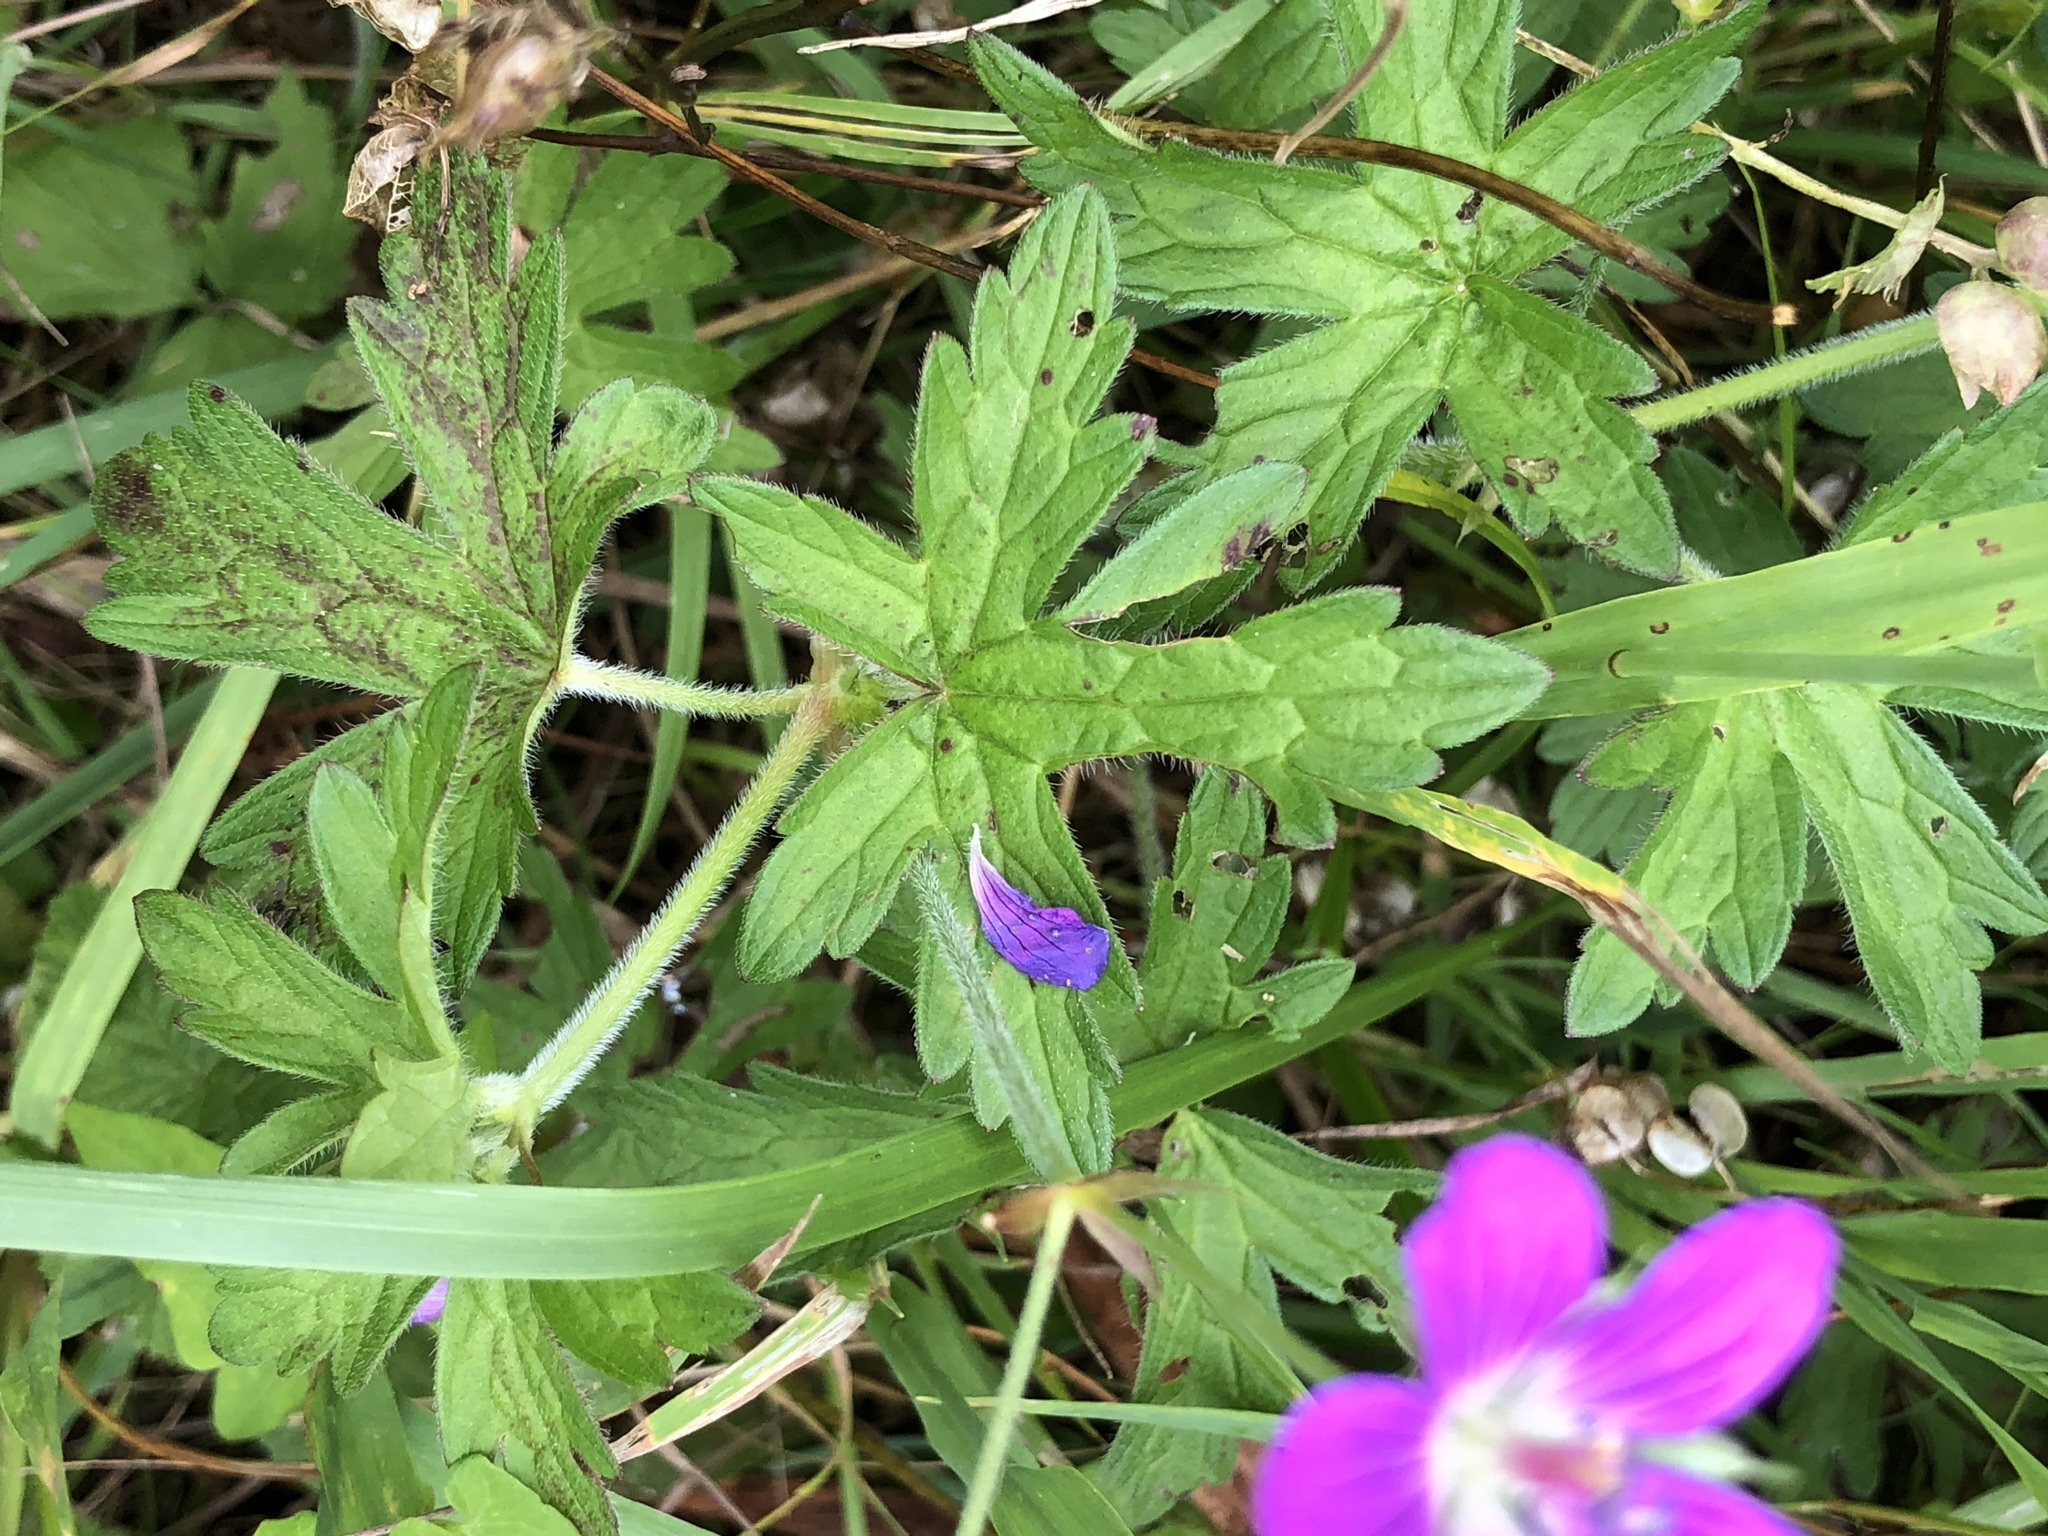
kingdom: Plantae
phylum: Tracheophyta
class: Magnoliopsida
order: Geraniales
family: Geraniaceae
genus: Geranium
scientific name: Geranium palustre
